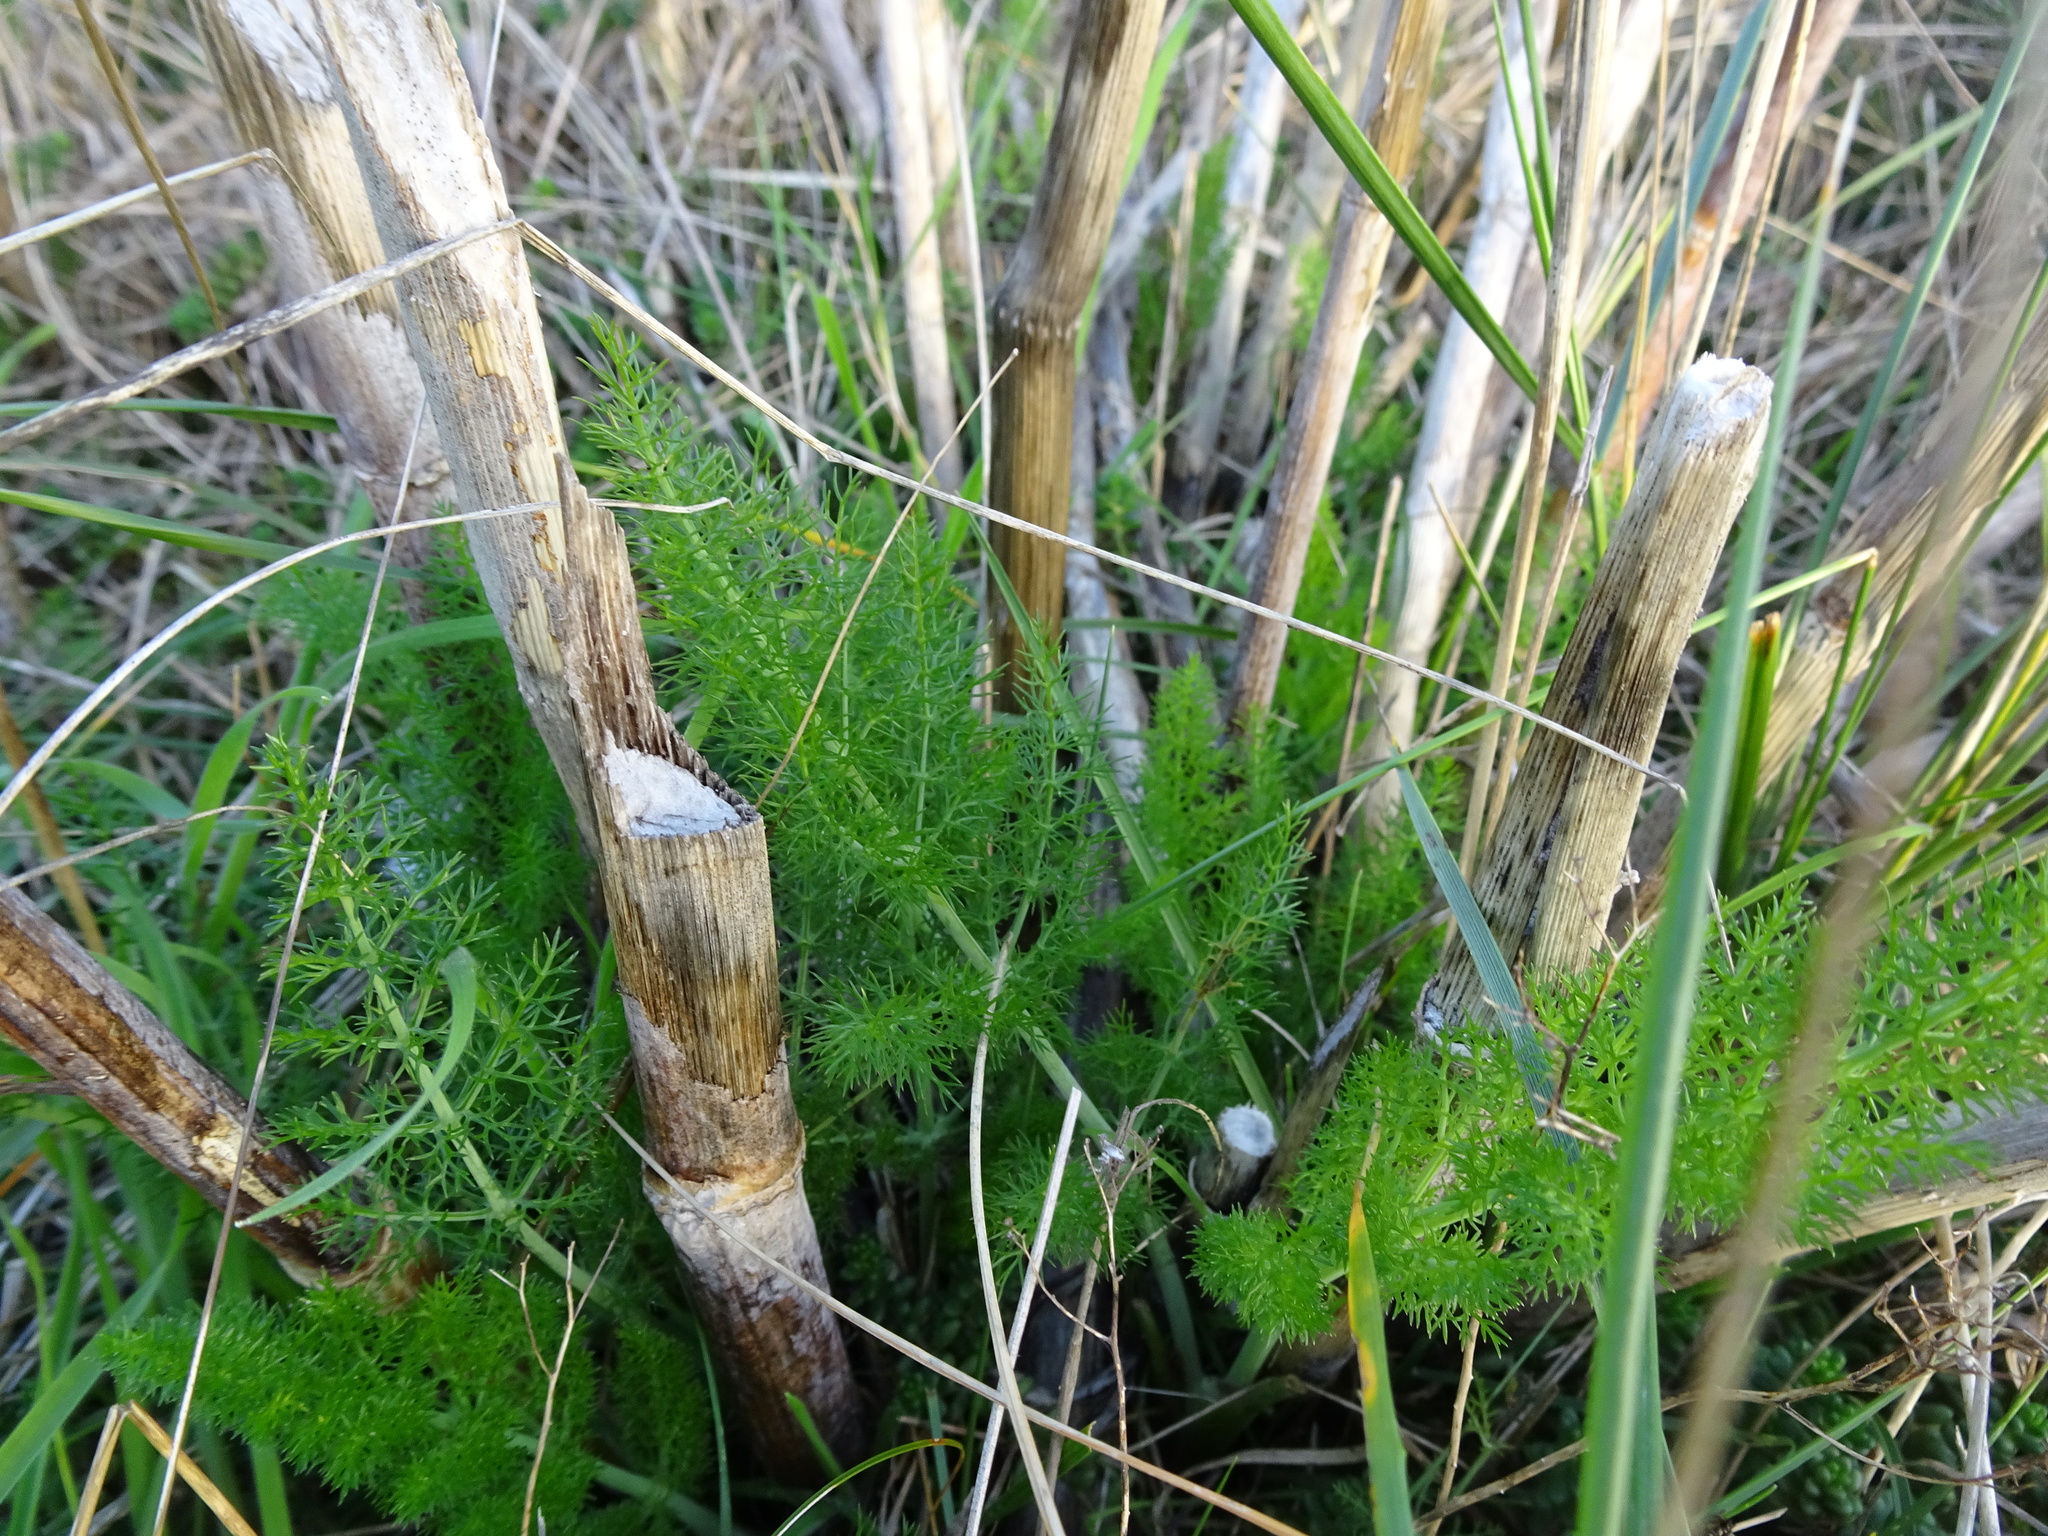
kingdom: Plantae
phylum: Tracheophyta
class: Magnoliopsida
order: Apiales
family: Apiaceae
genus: Foeniculum
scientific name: Foeniculum vulgare
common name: Fennel
